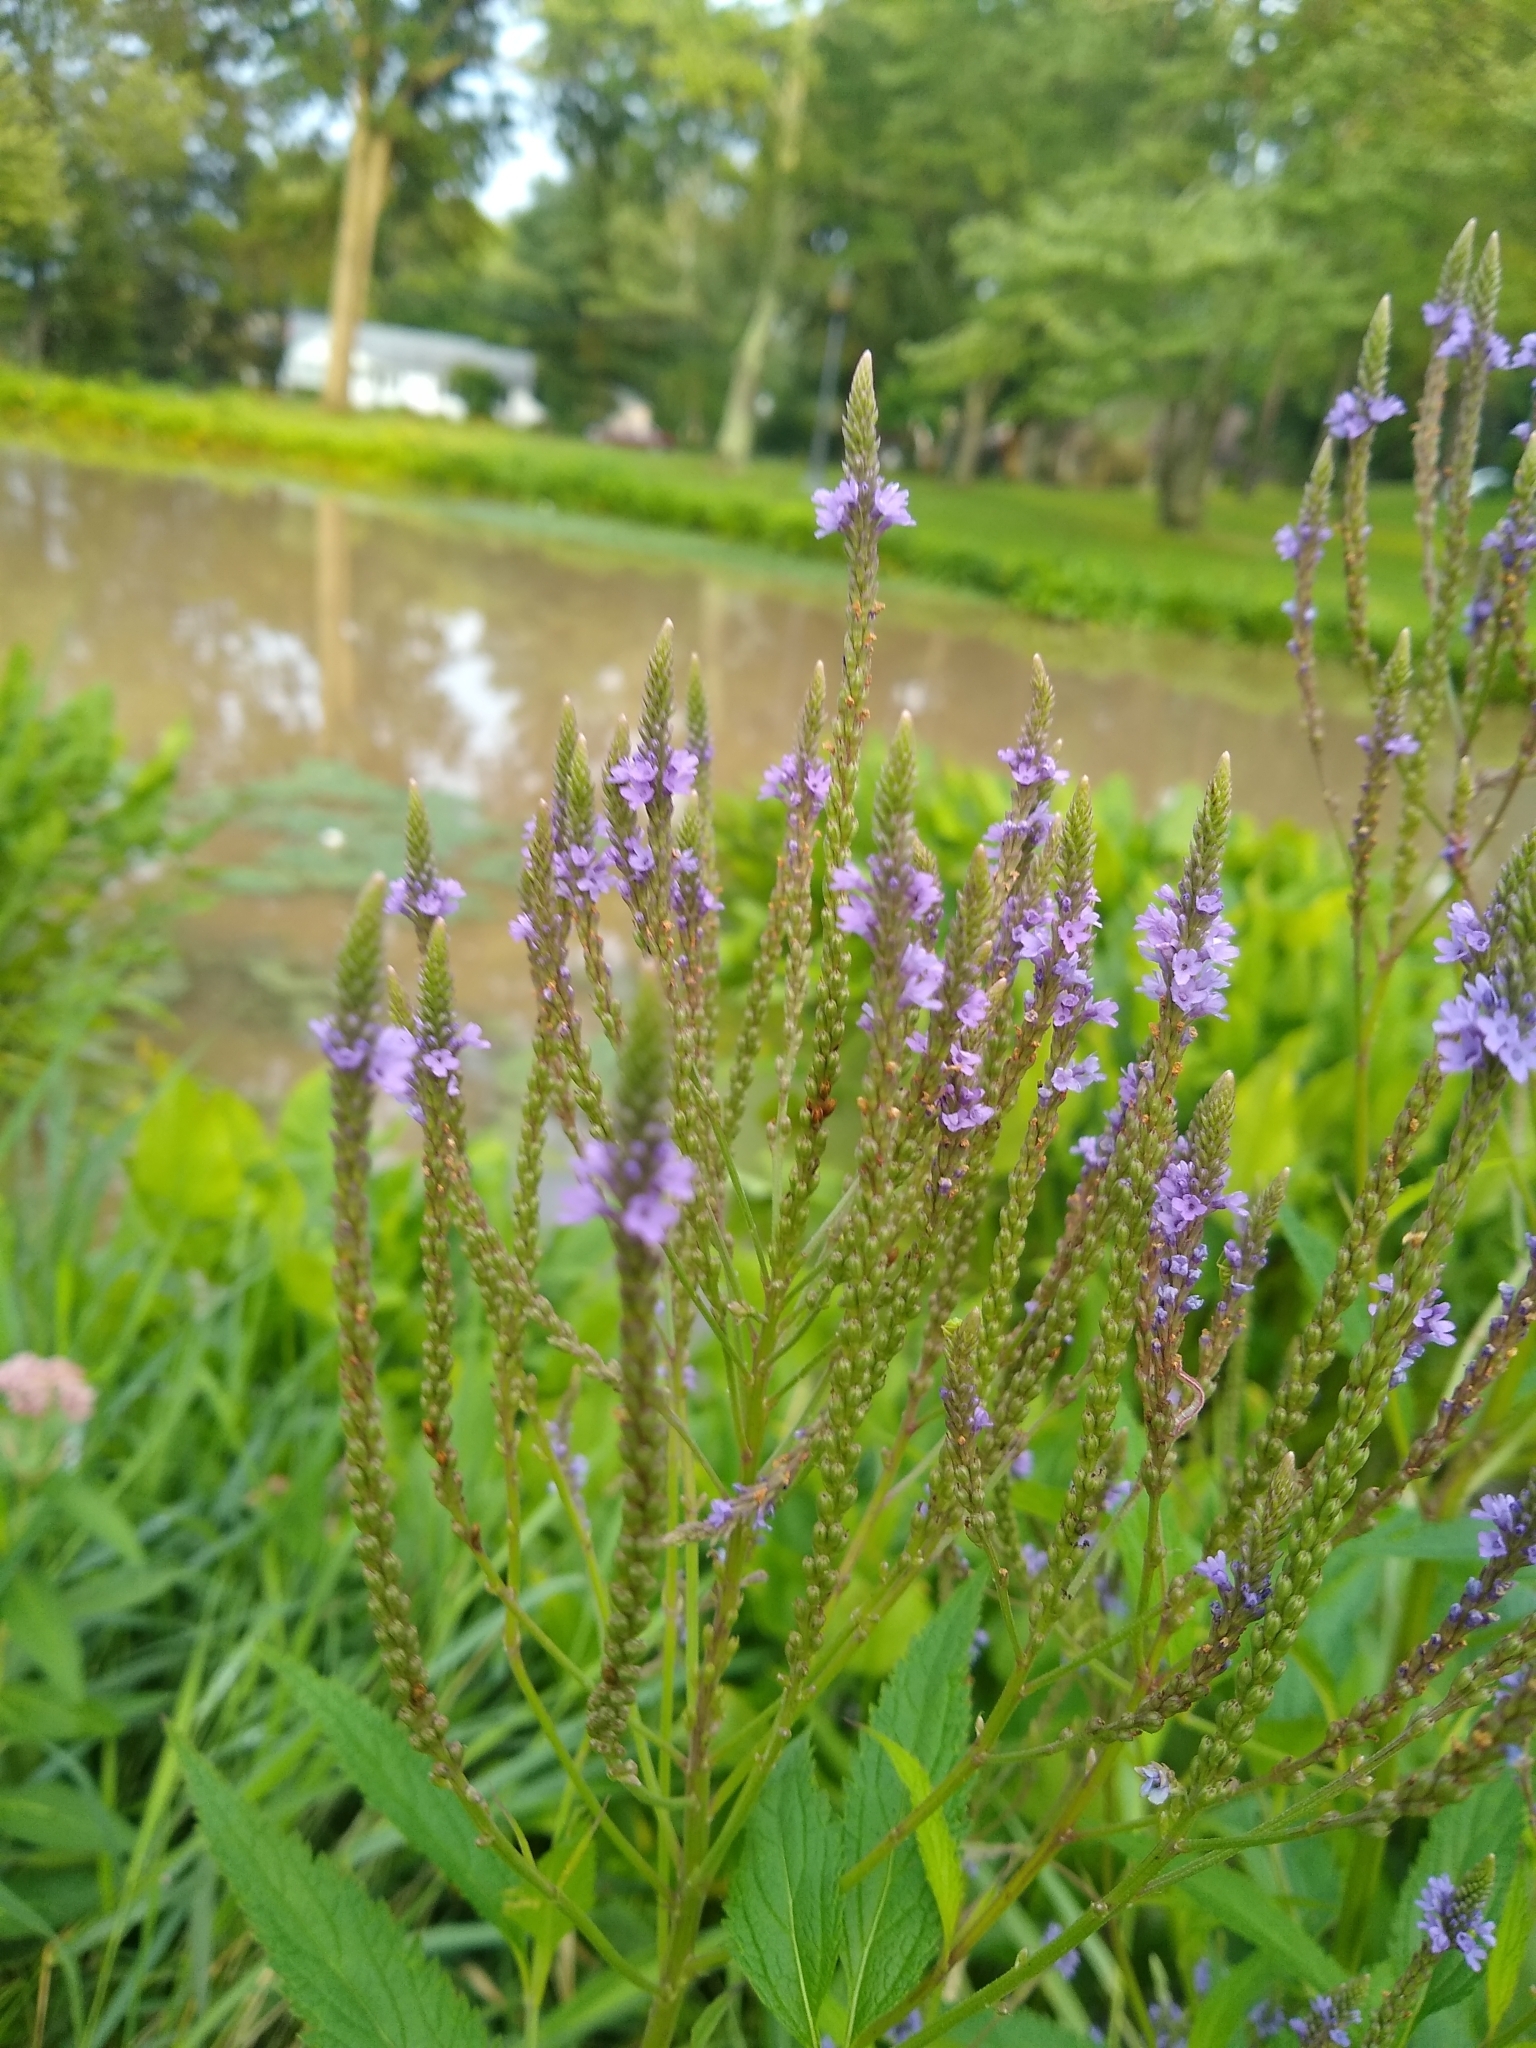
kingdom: Plantae
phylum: Tracheophyta
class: Magnoliopsida
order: Lamiales
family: Verbenaceae
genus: Verbena
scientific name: Verbena hastata
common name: American blue vervain
